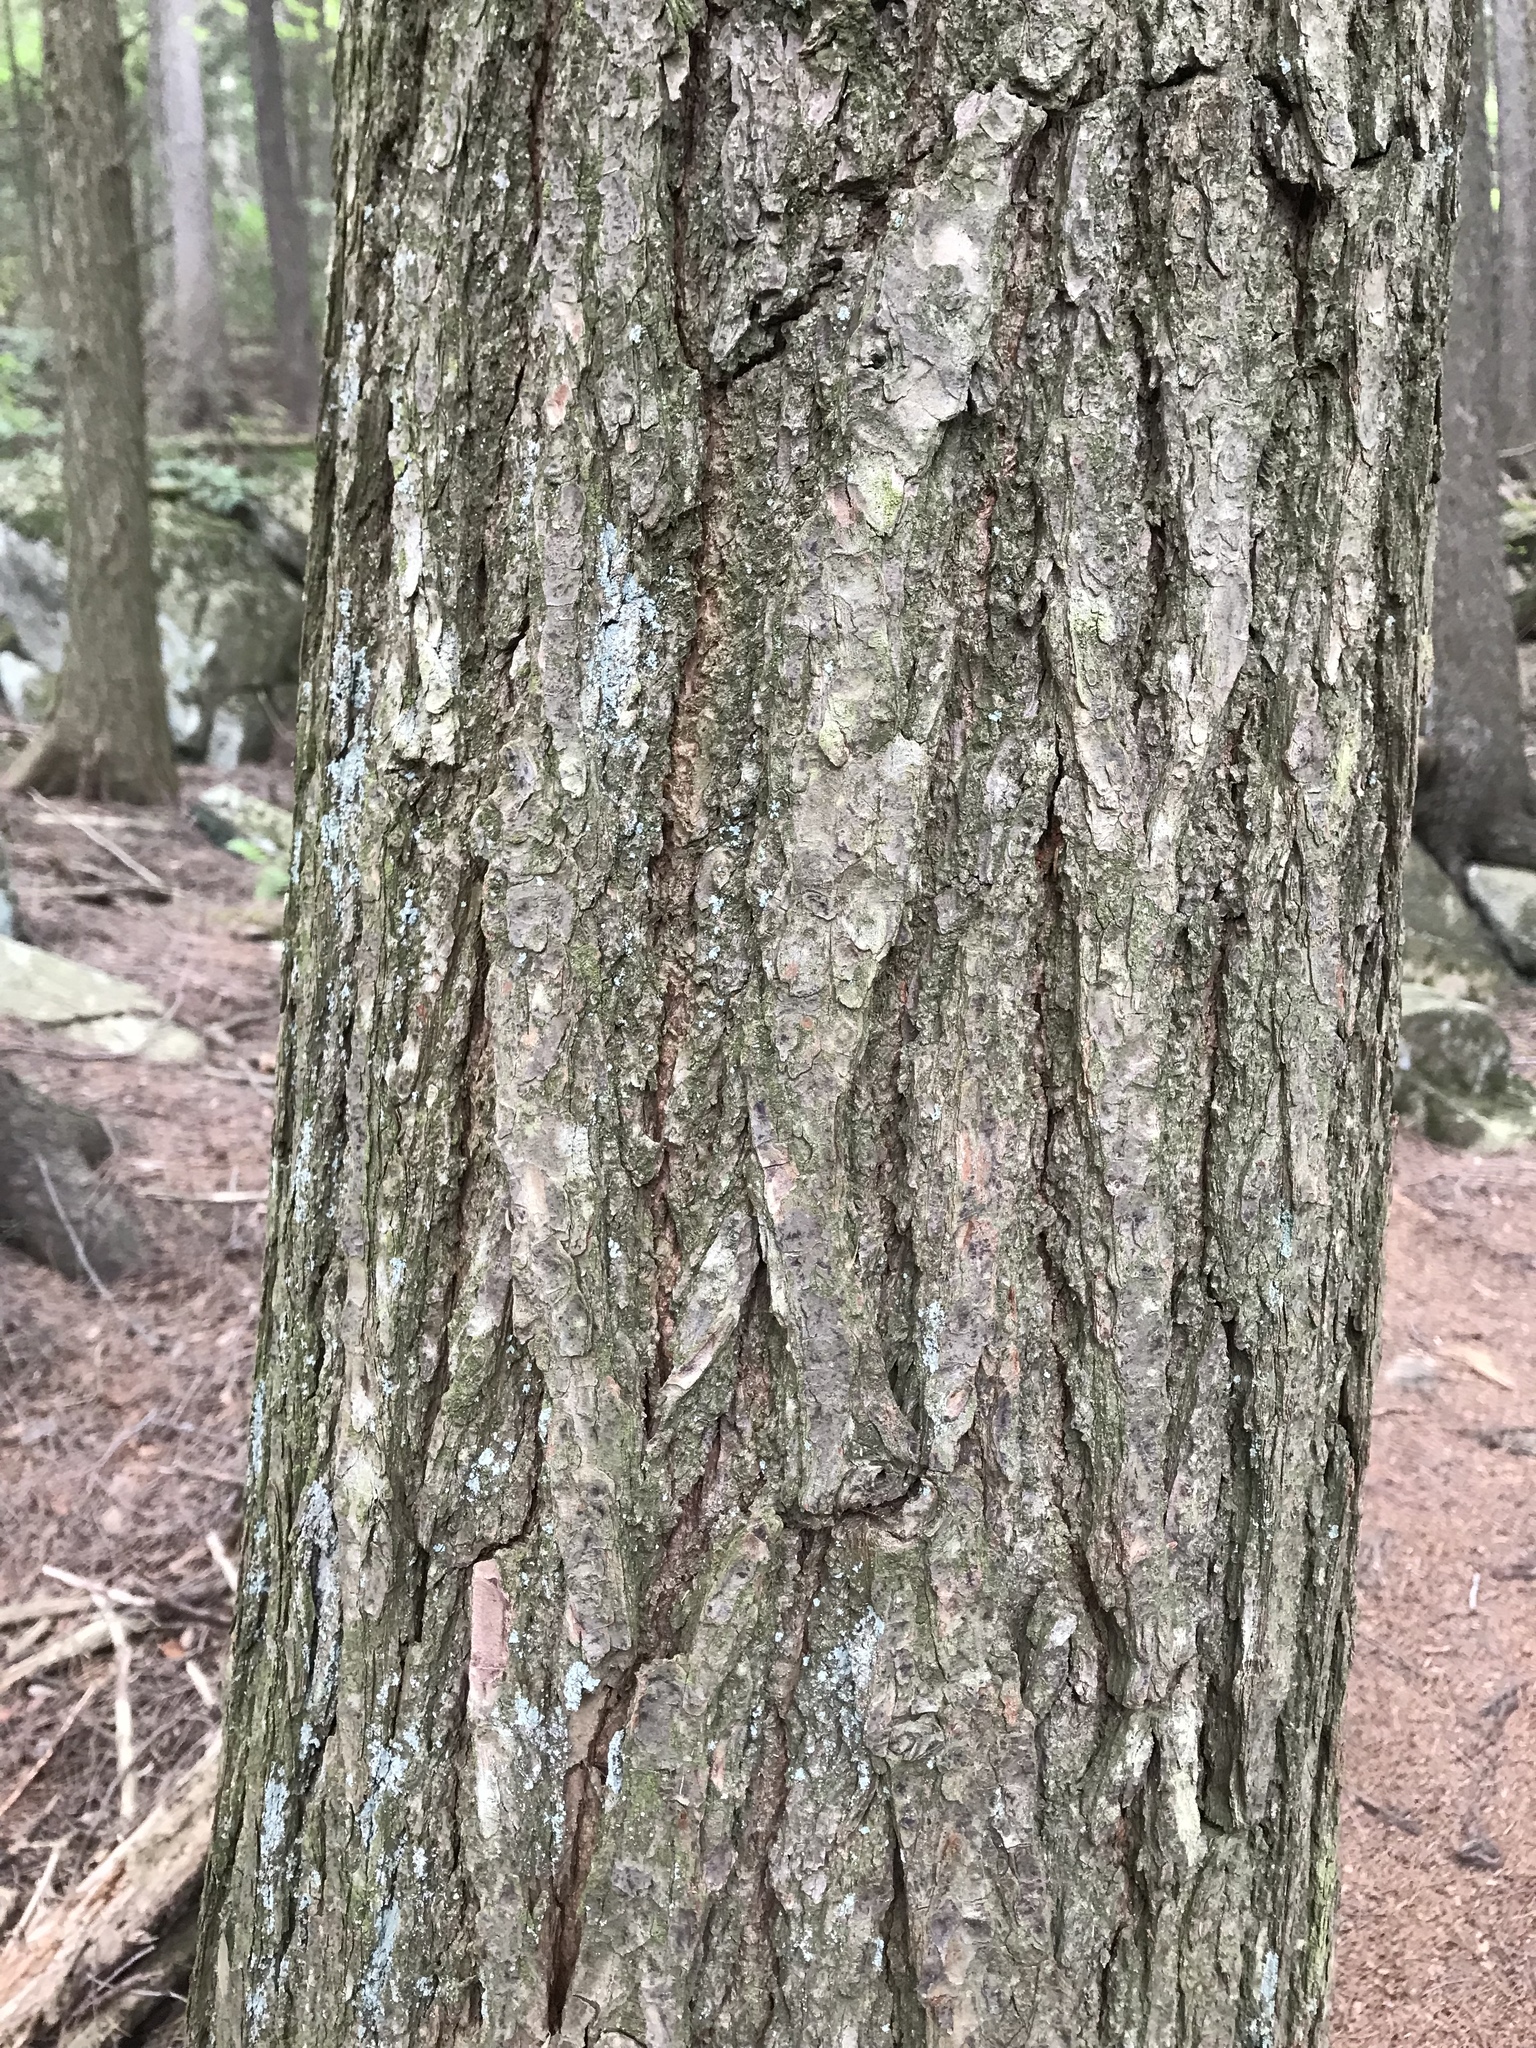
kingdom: Plantae
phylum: Tracheophyta
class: Pinopsida
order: Pinales
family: Pinaceae
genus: Tsuga
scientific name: Tsuga canadensis
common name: Eastern hemlock
